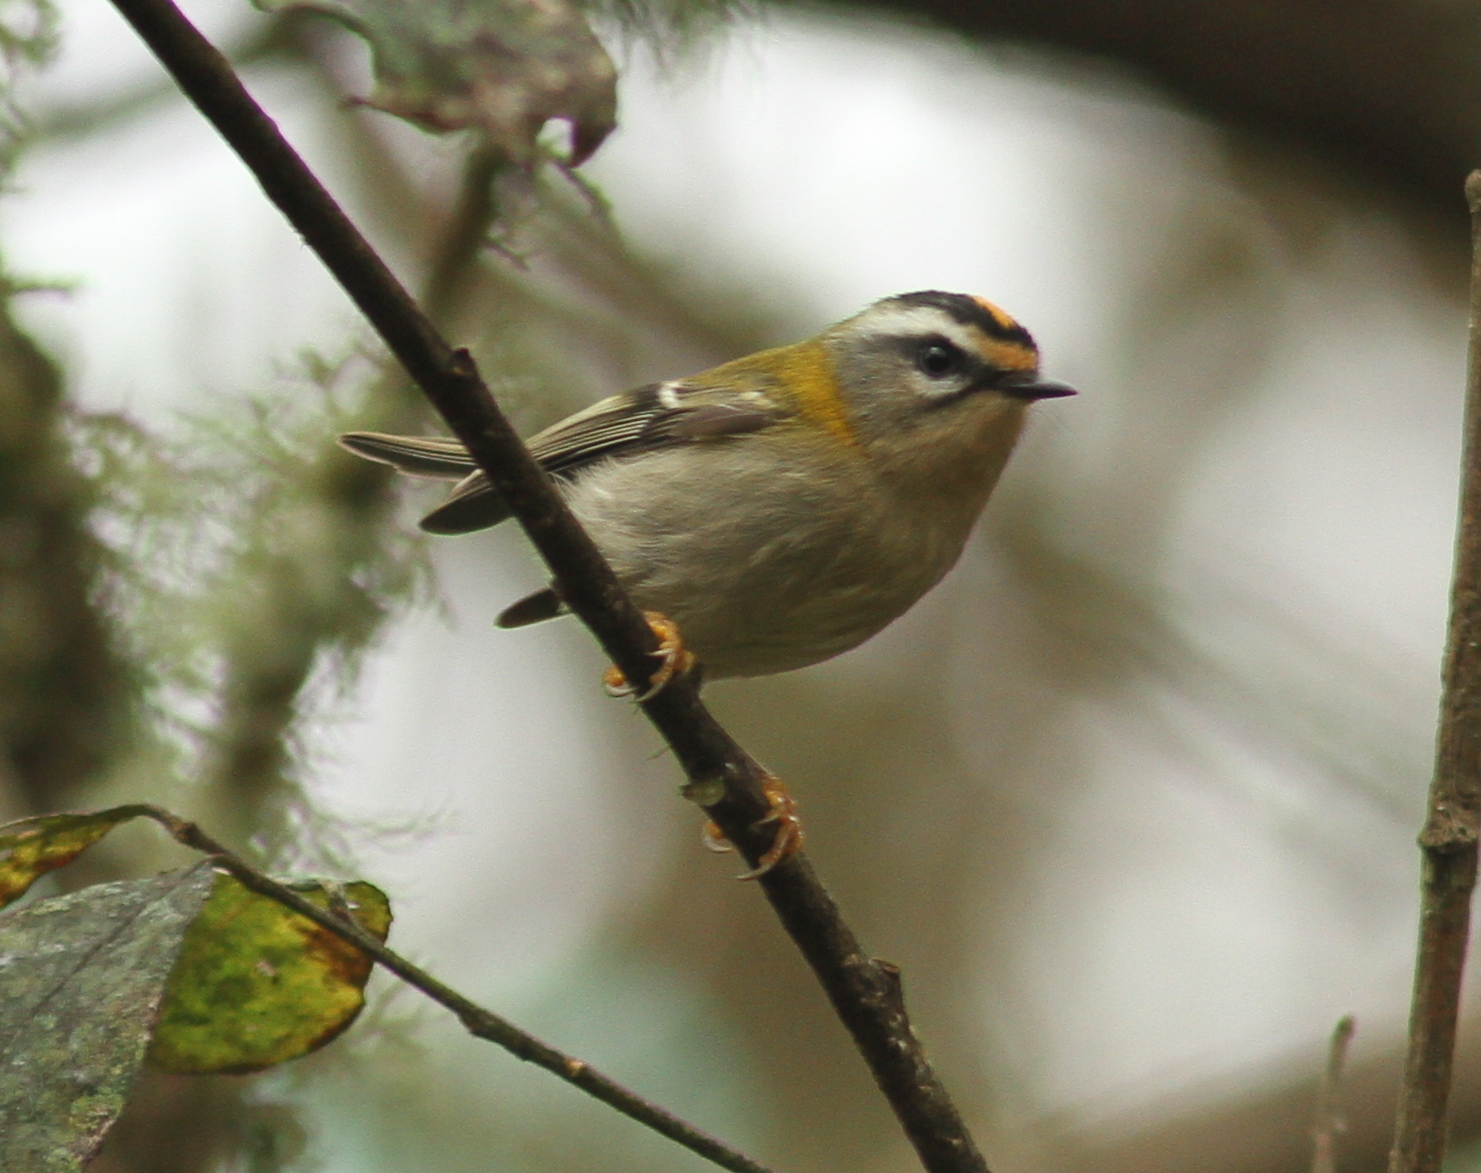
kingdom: Animalia
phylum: Chordata
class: Aves
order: Passeriformes
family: Regulidae
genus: Regulus
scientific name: Regulus ignicapilla
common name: Firecrest
